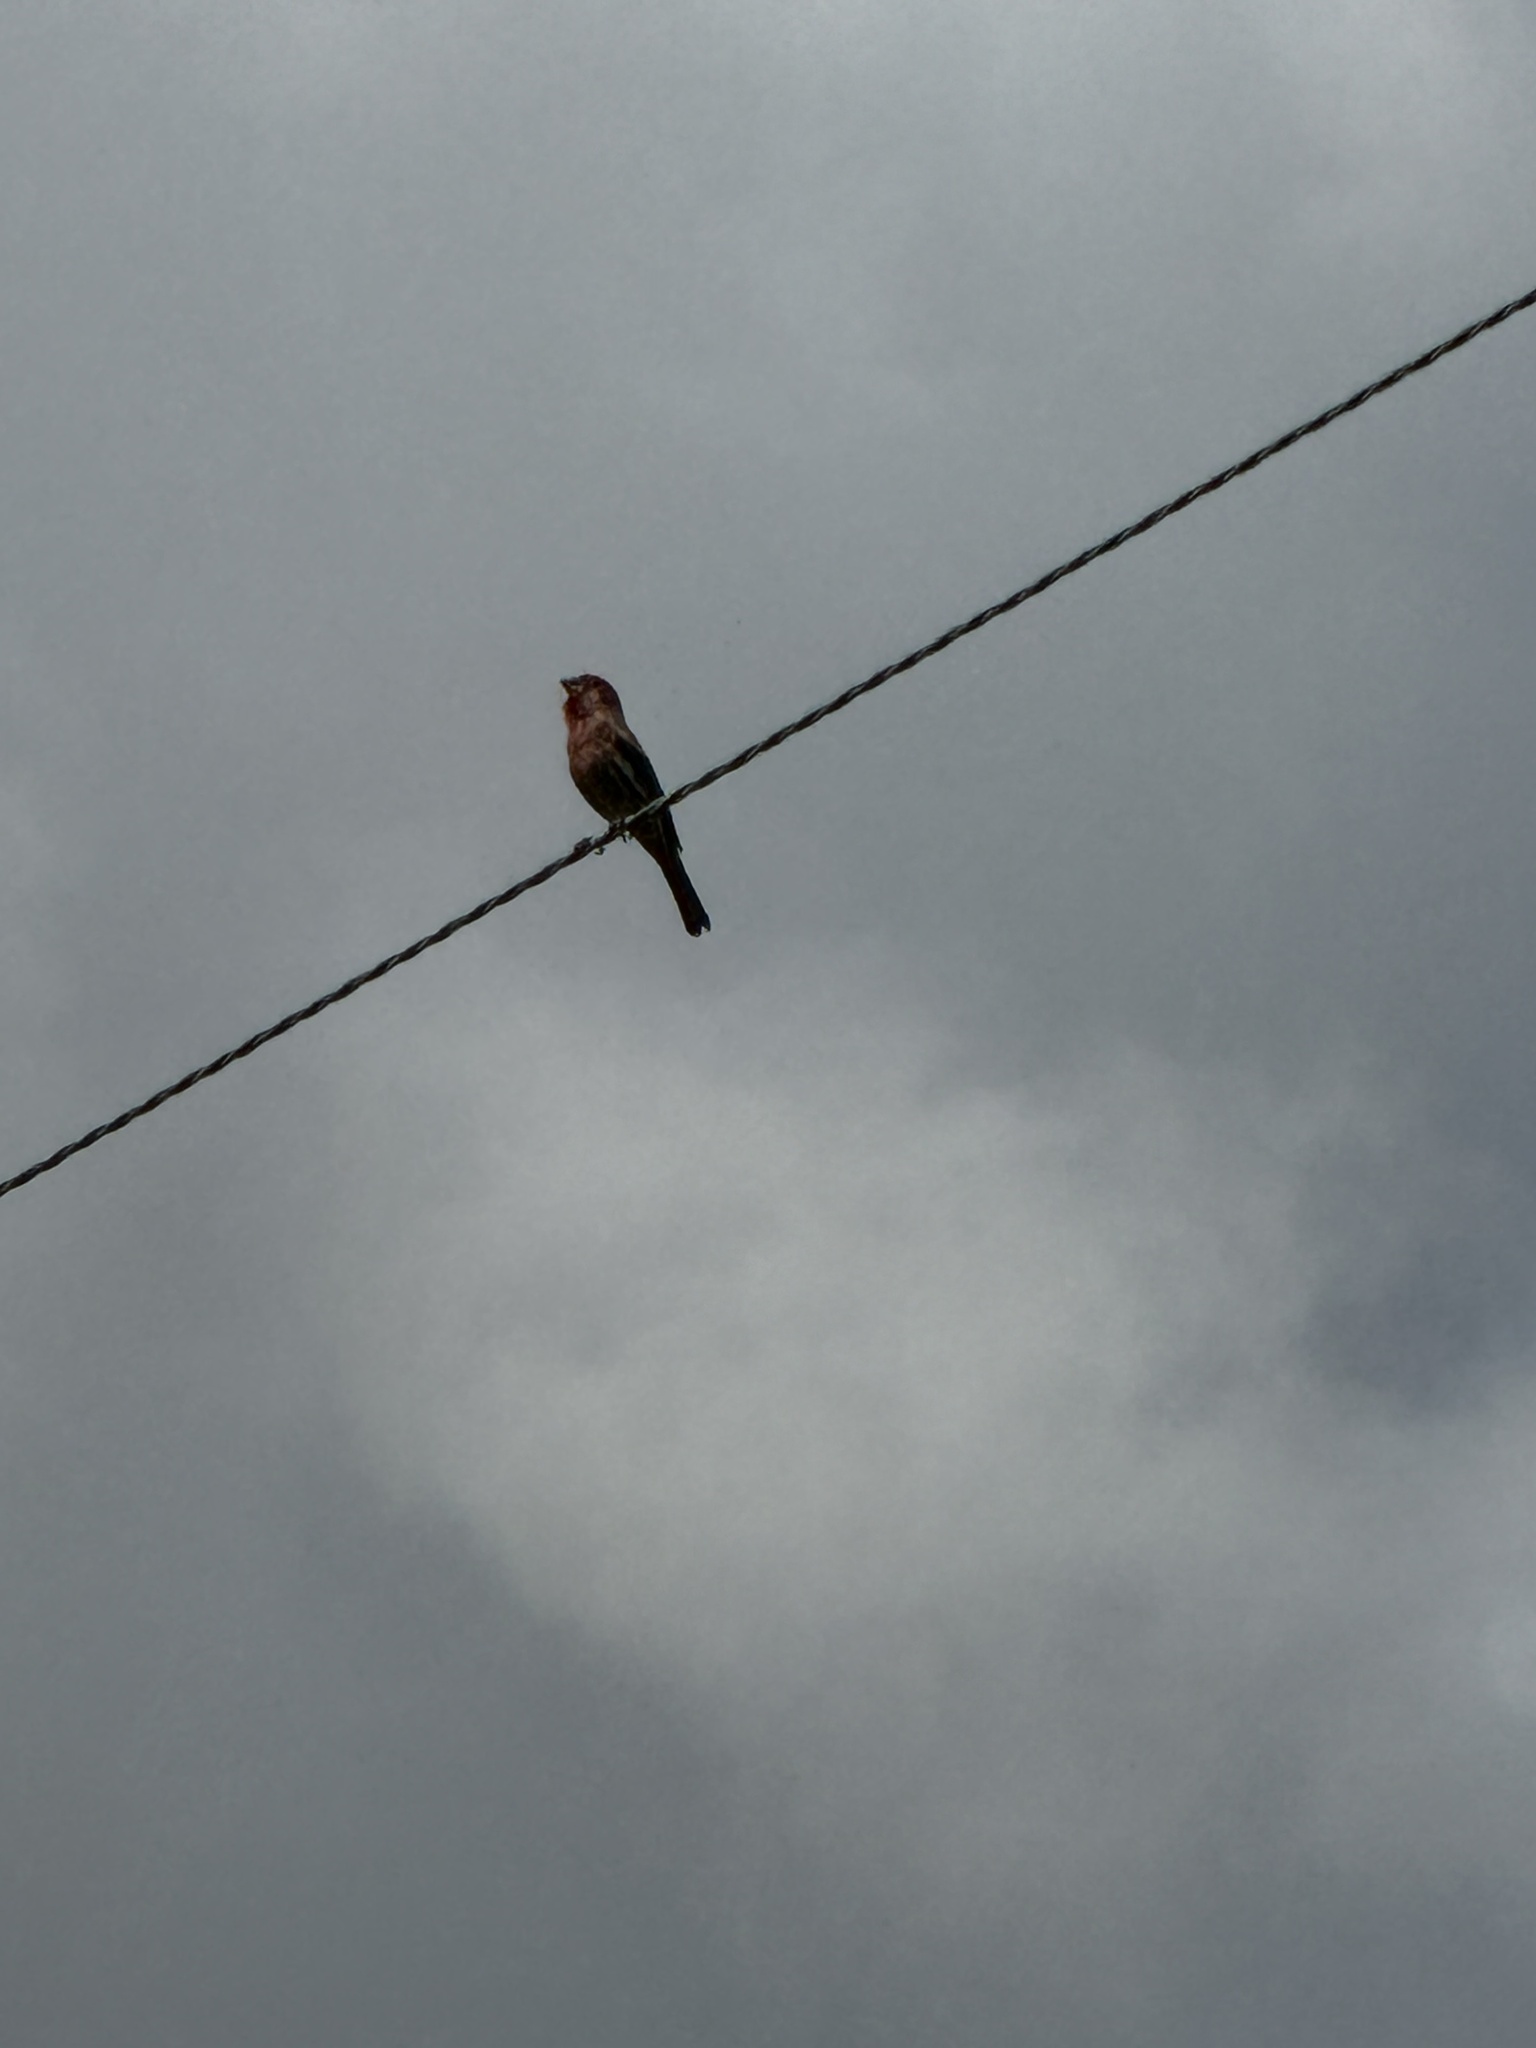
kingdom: Animalia
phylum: Chordata
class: Aves
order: Passeriformes
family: Fringillidae
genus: Haemorhous
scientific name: Haemorhous mexicanus
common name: House finch
